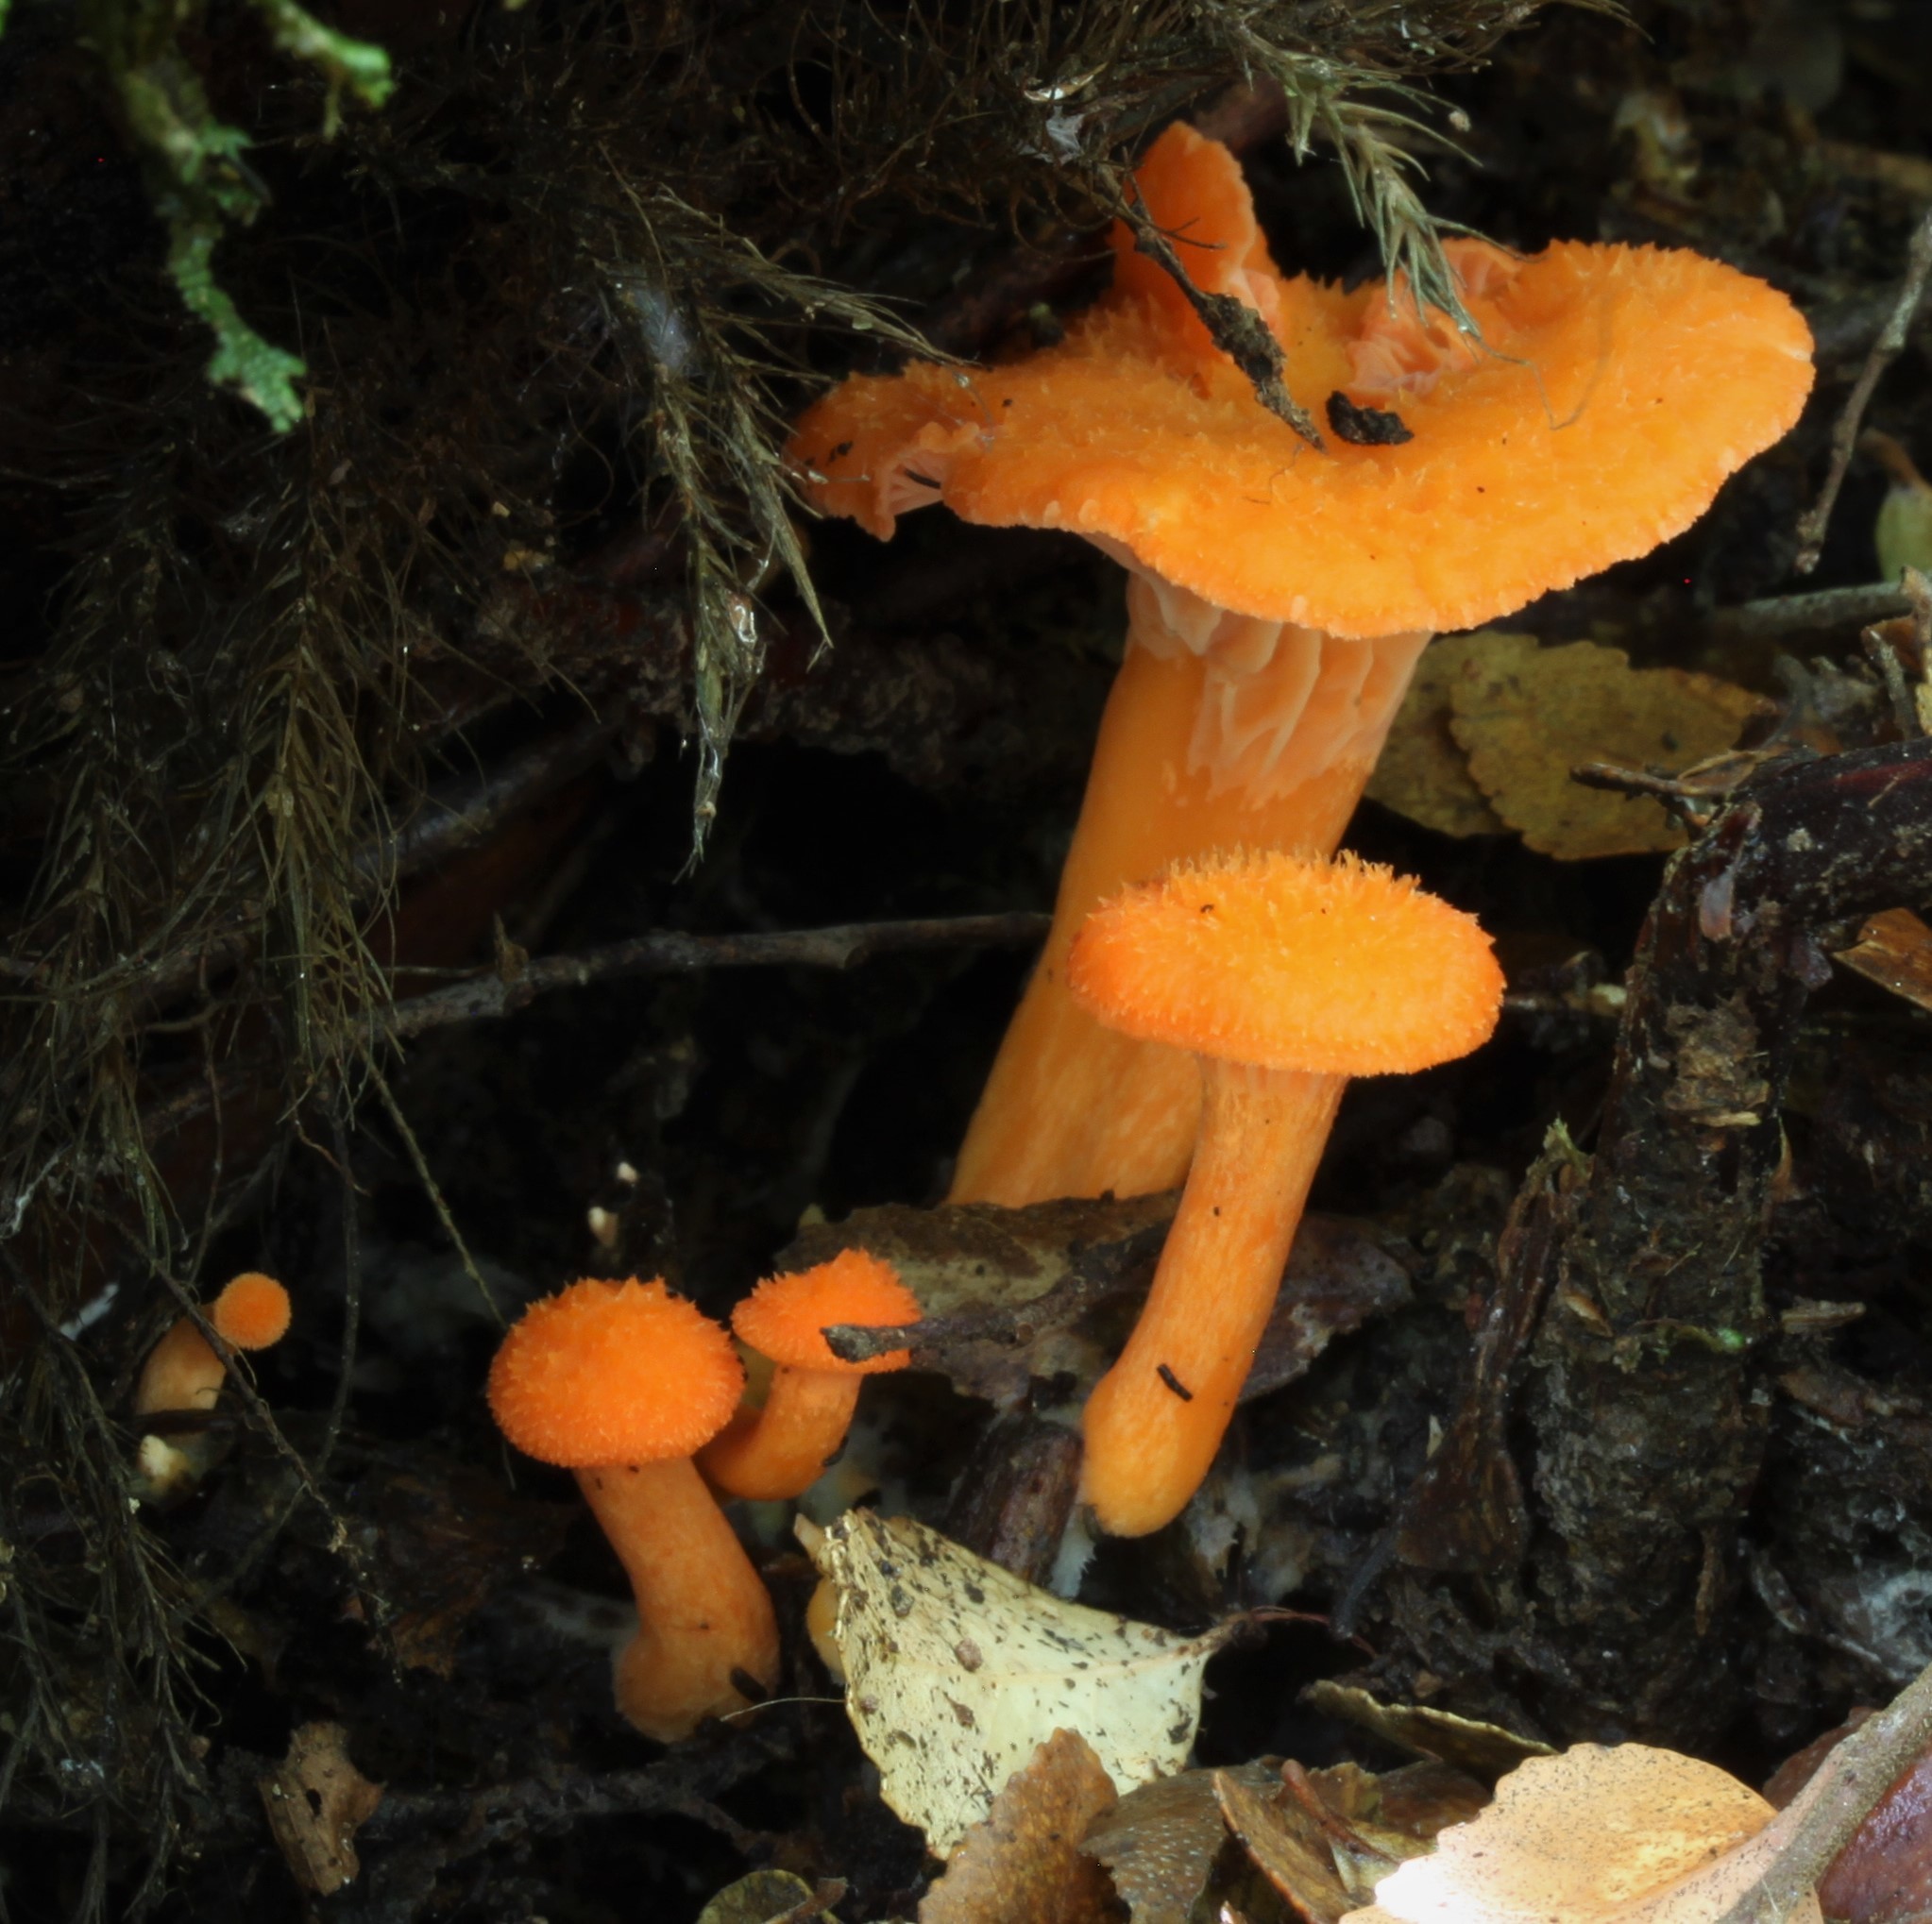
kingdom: Fungi
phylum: Basidiomycota
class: Agaricomycetes
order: Cantharellales
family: Hydnaceae
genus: Cantharellus
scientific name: Cantharellus
